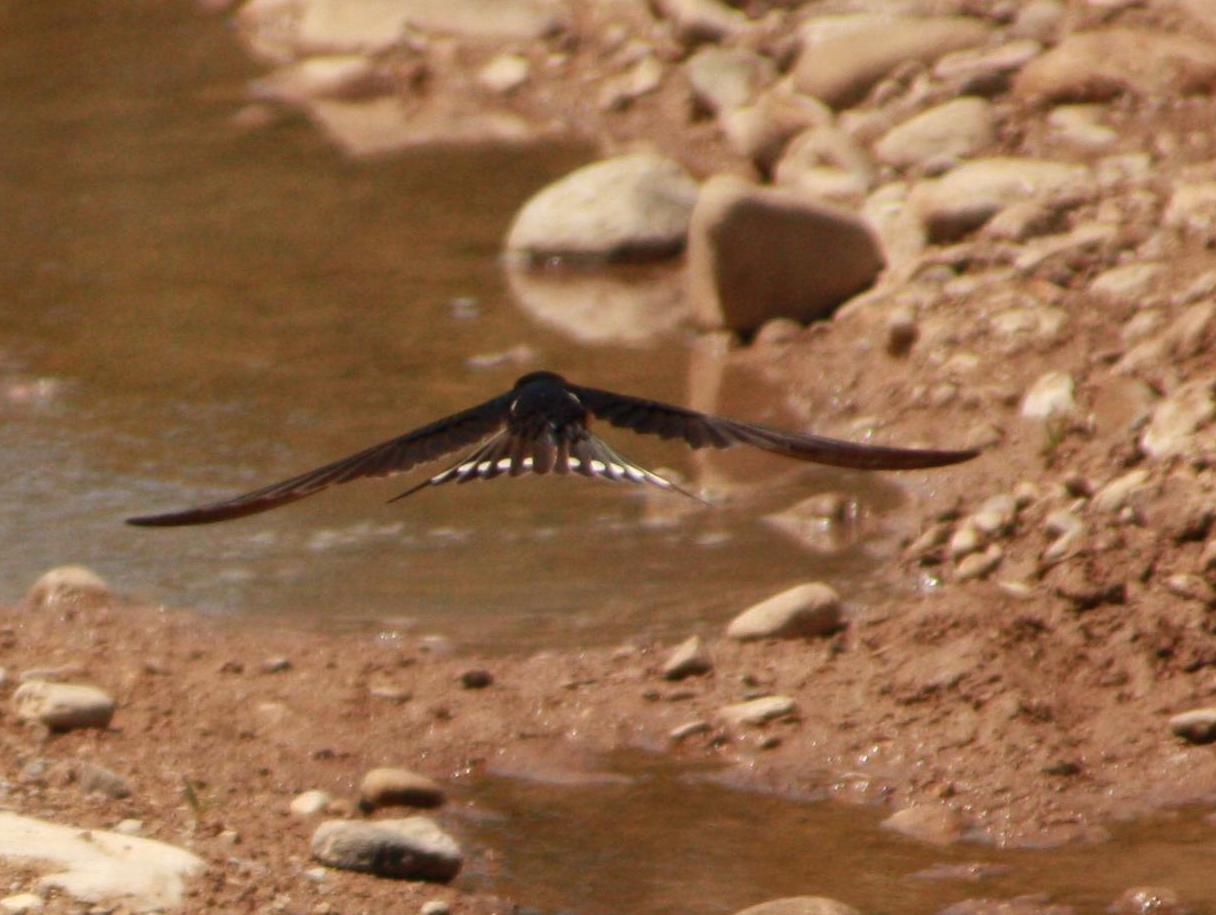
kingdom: Animalia
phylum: Chordata
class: Aves
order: Passeriformes
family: Hirundinidae
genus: Hirundo
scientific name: Hirundo rustica
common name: Barn swallow
